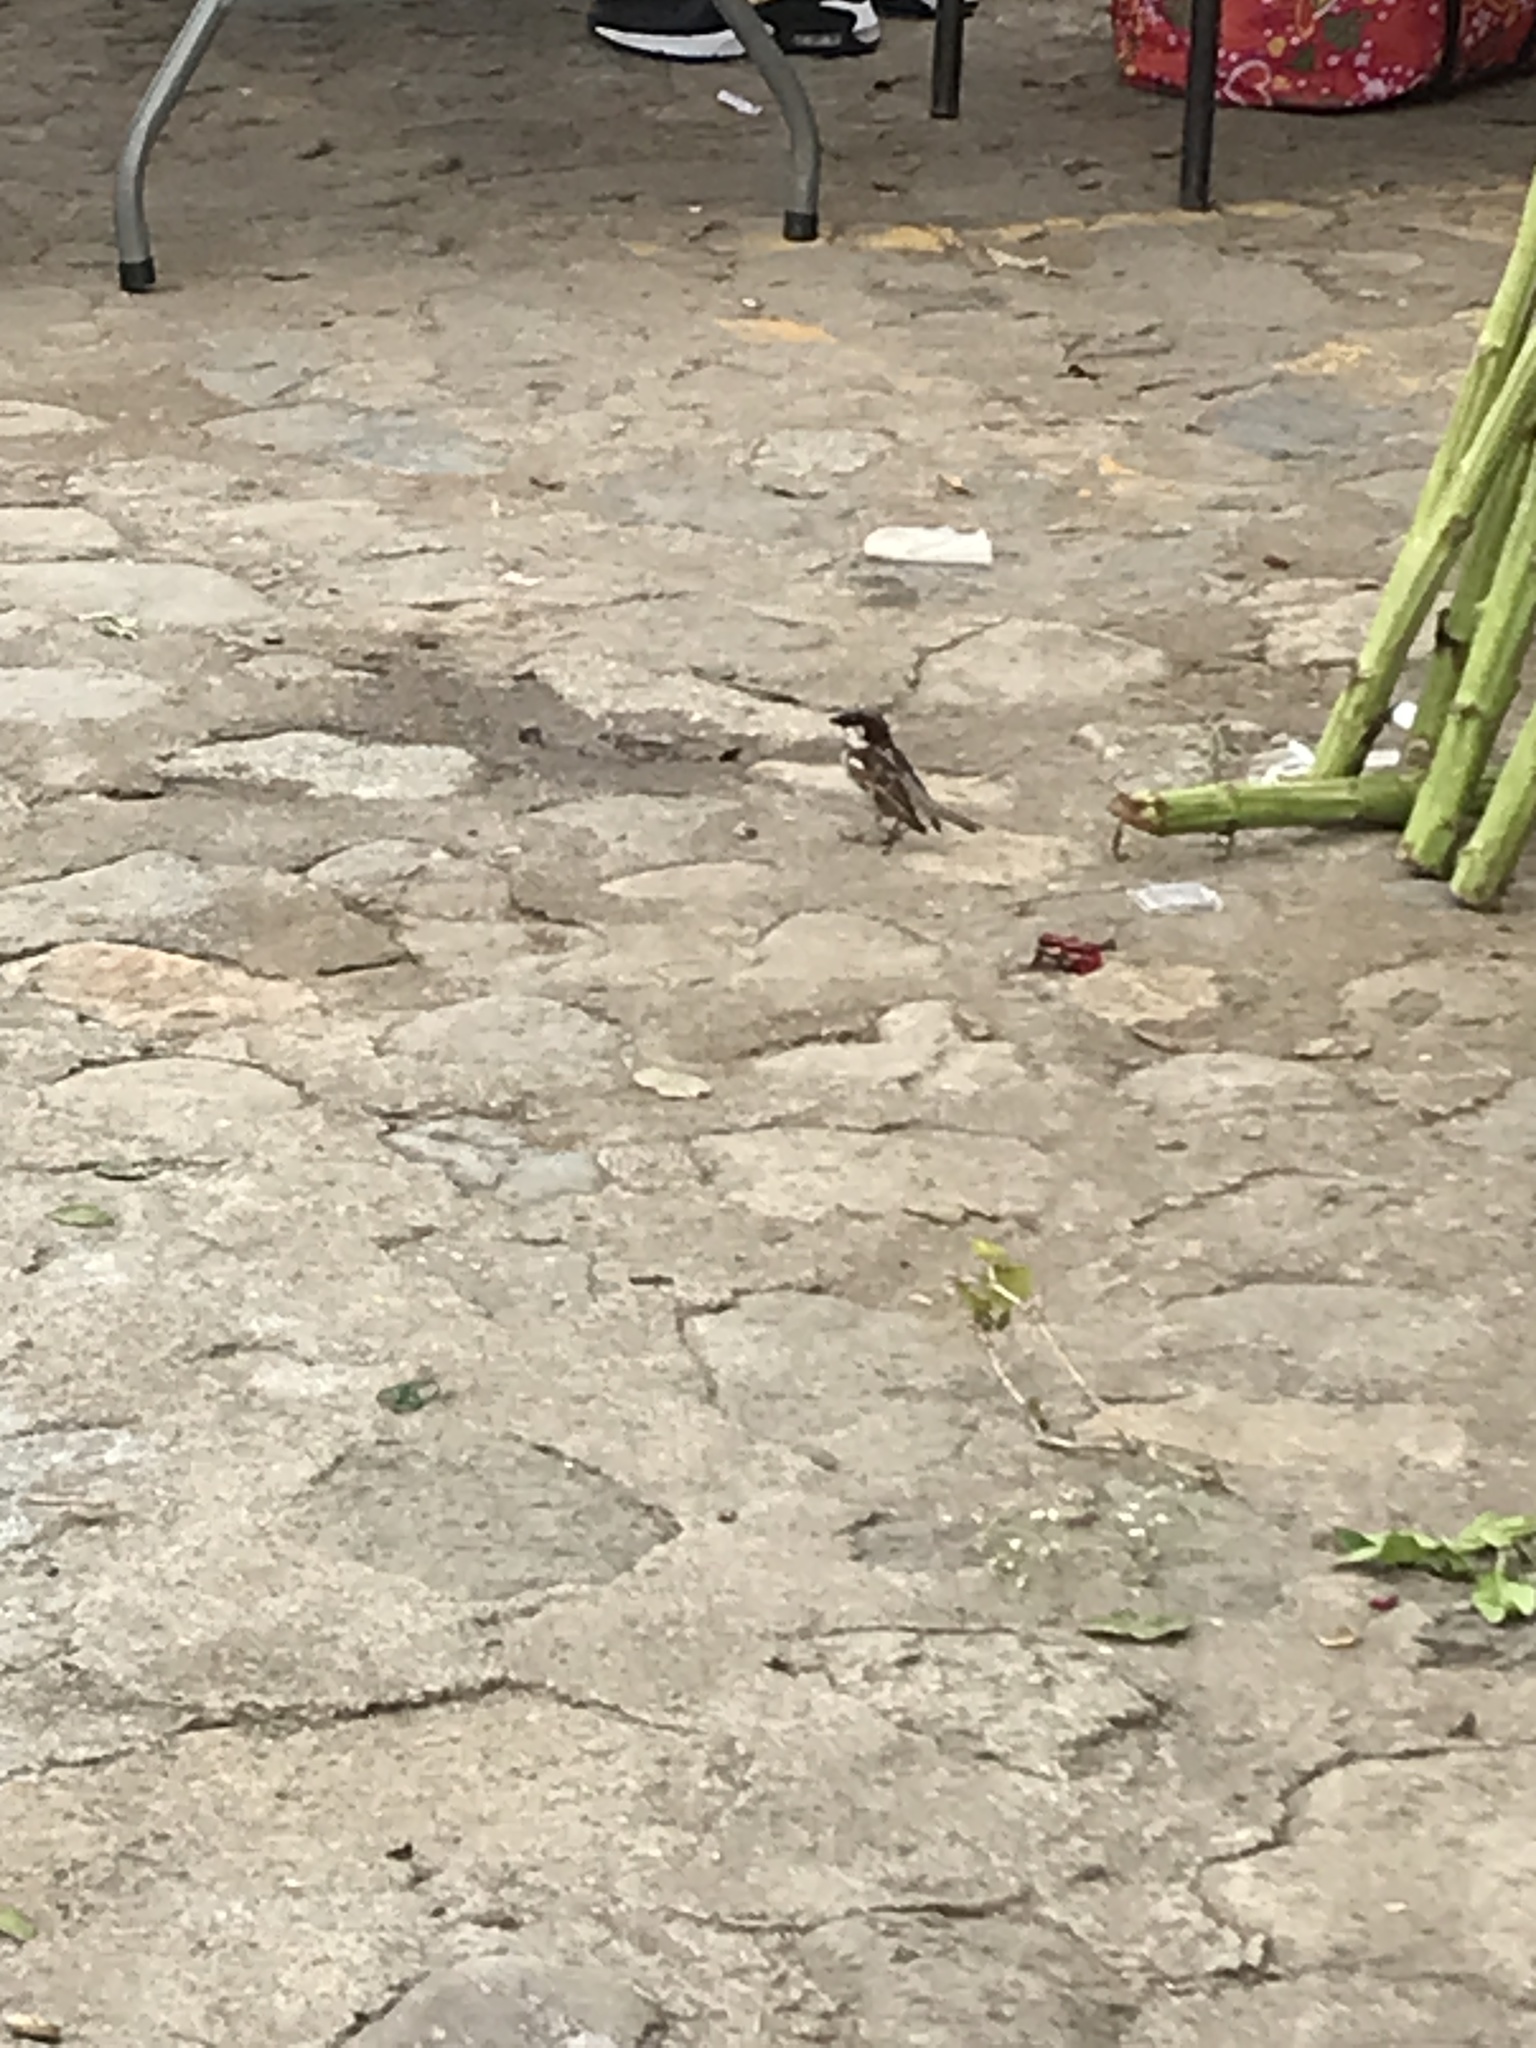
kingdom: Animalia
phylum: Chordata
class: Aves
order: Passeriformes
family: Passeridae
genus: Passer
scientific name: Passer domesticus
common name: House sparrow
